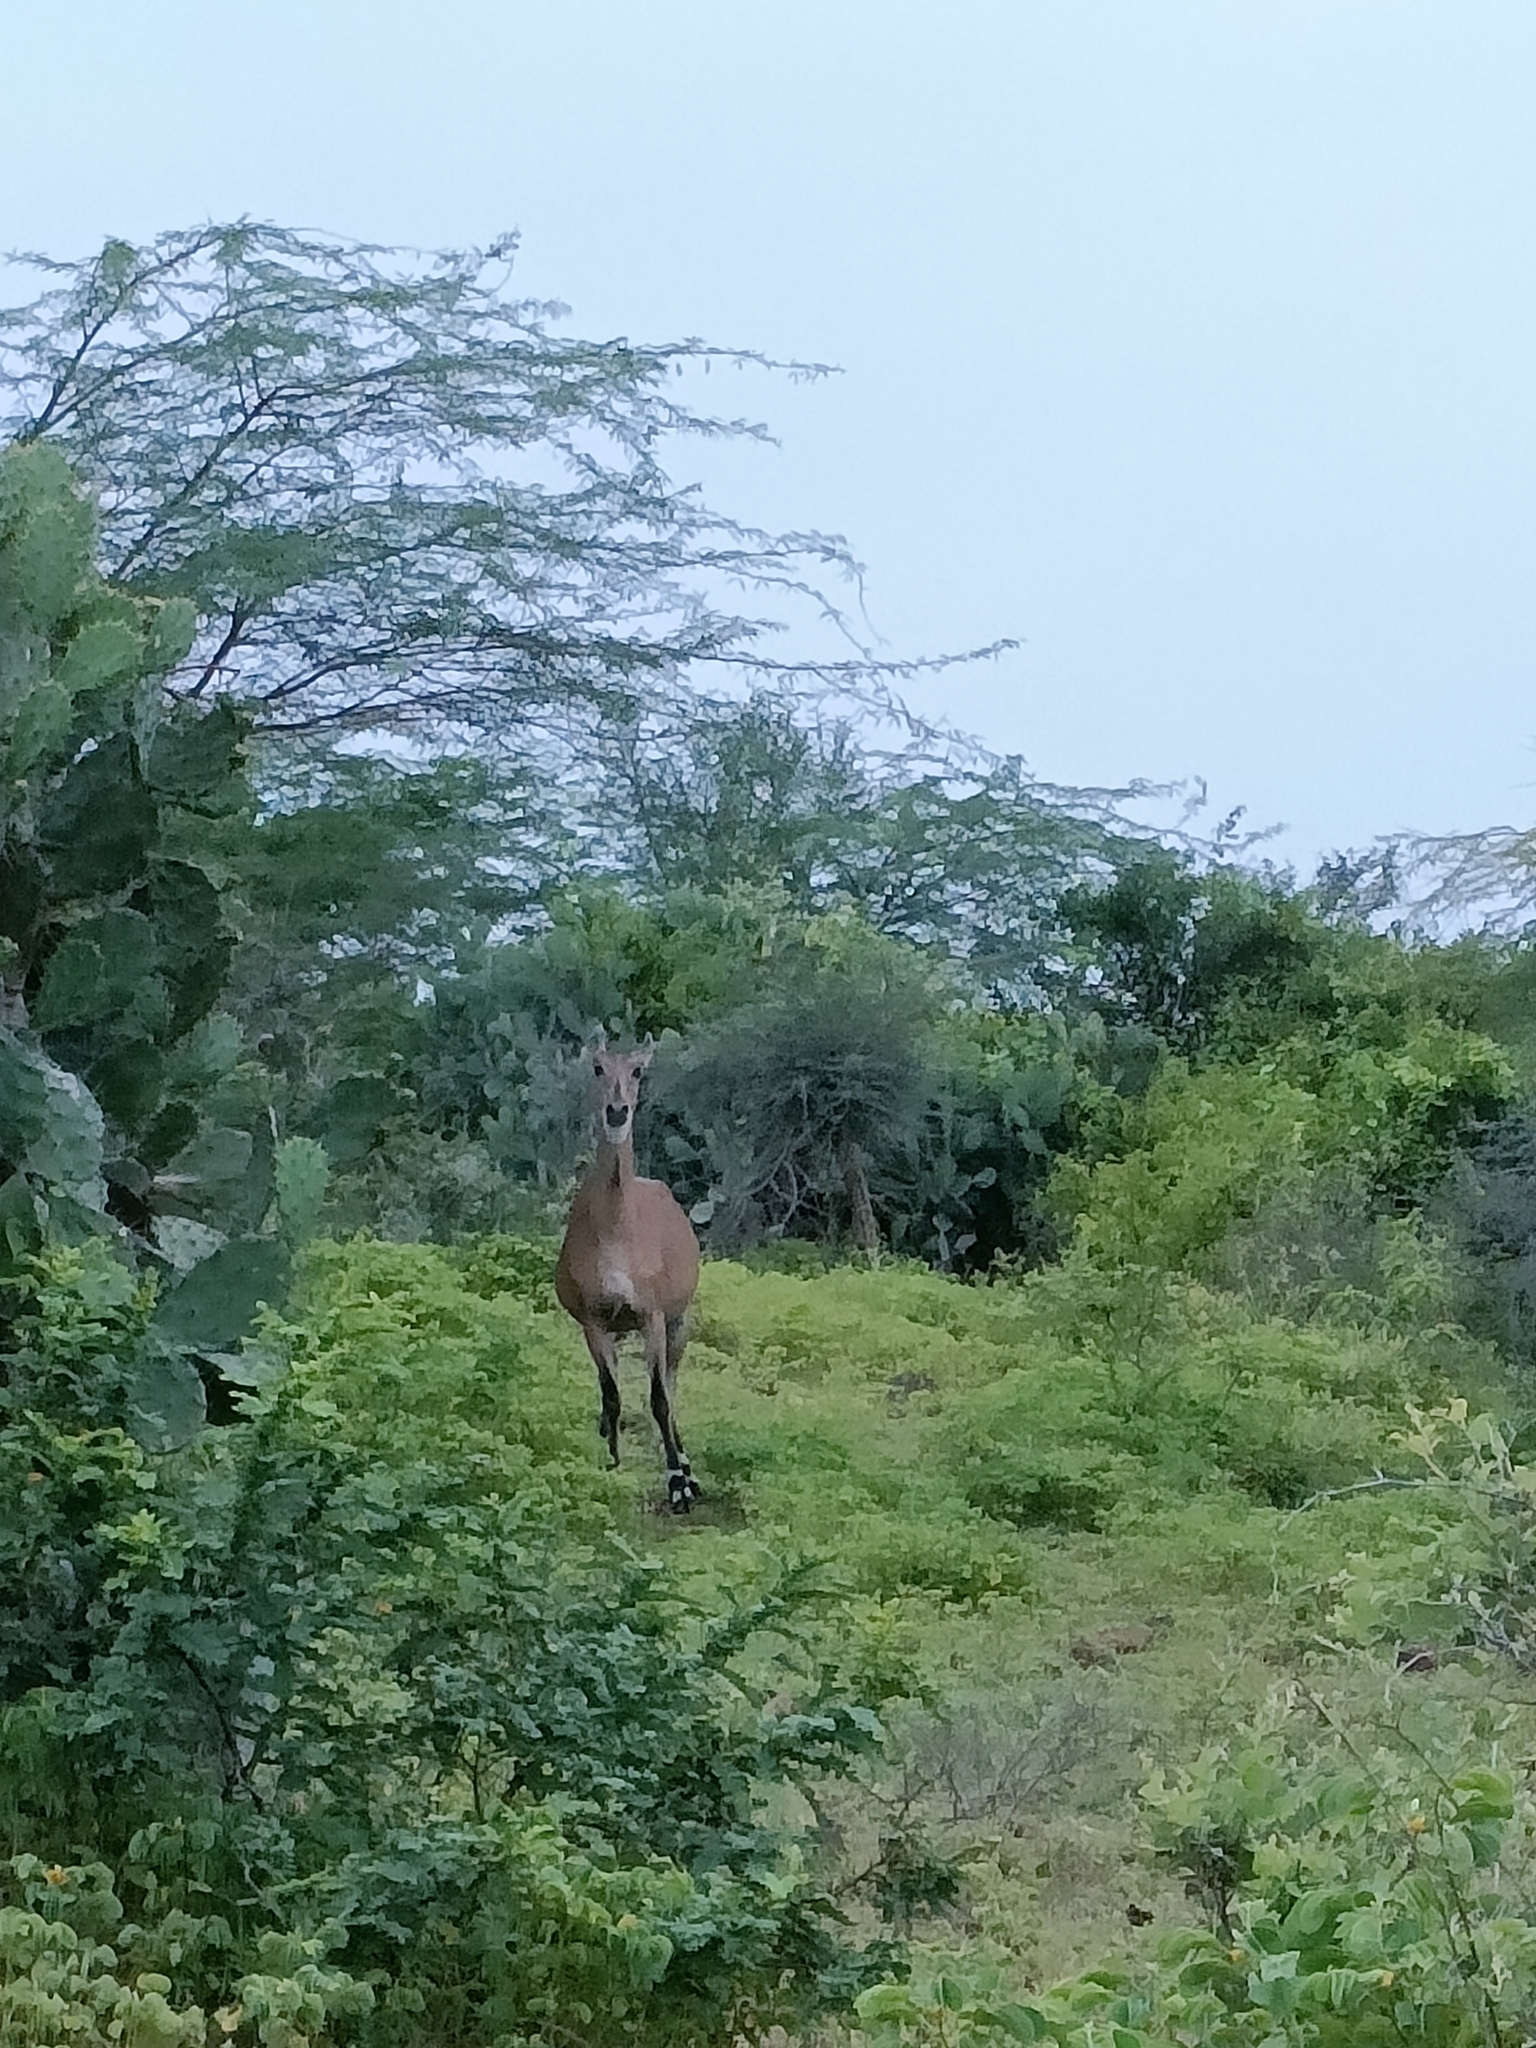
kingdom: Animalia
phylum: Chordata
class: Mammalia
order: Artiodactyla
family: Bovidae
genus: Boselaphus
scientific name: Boselaphus tragocamelus
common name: Nilgai
